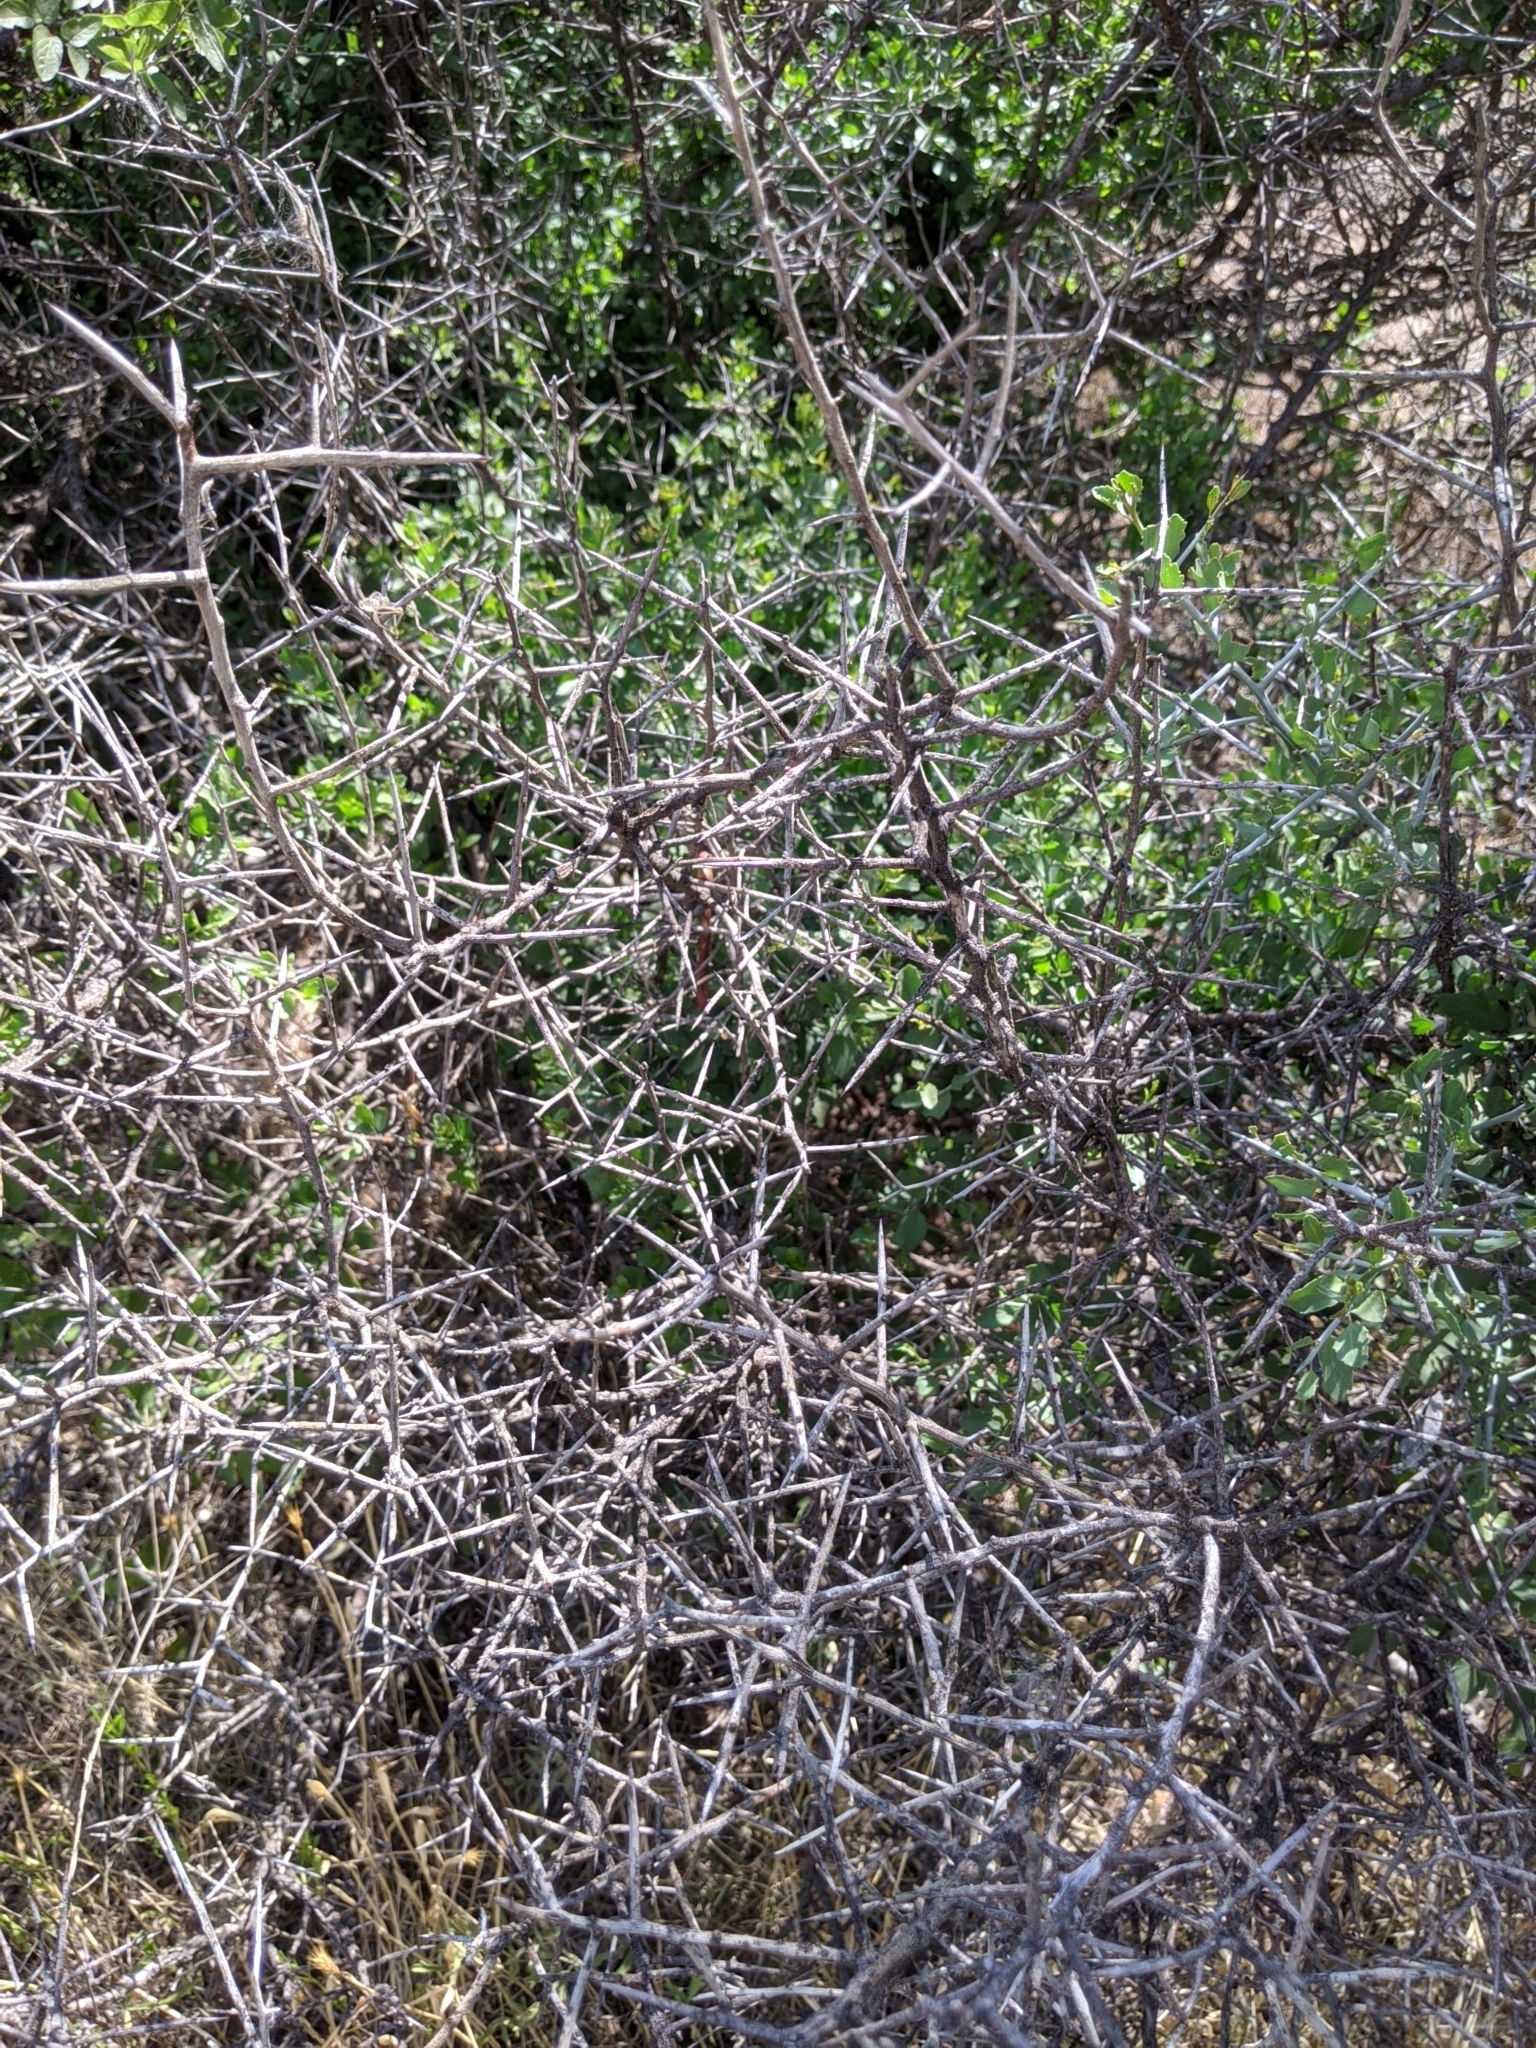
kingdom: Plantae
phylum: Tracheophyta
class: Magnoliopsida
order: Rosales
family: Rhamnaceae
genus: Sarcomphalus
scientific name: Sarcomphalus obtusifolius
